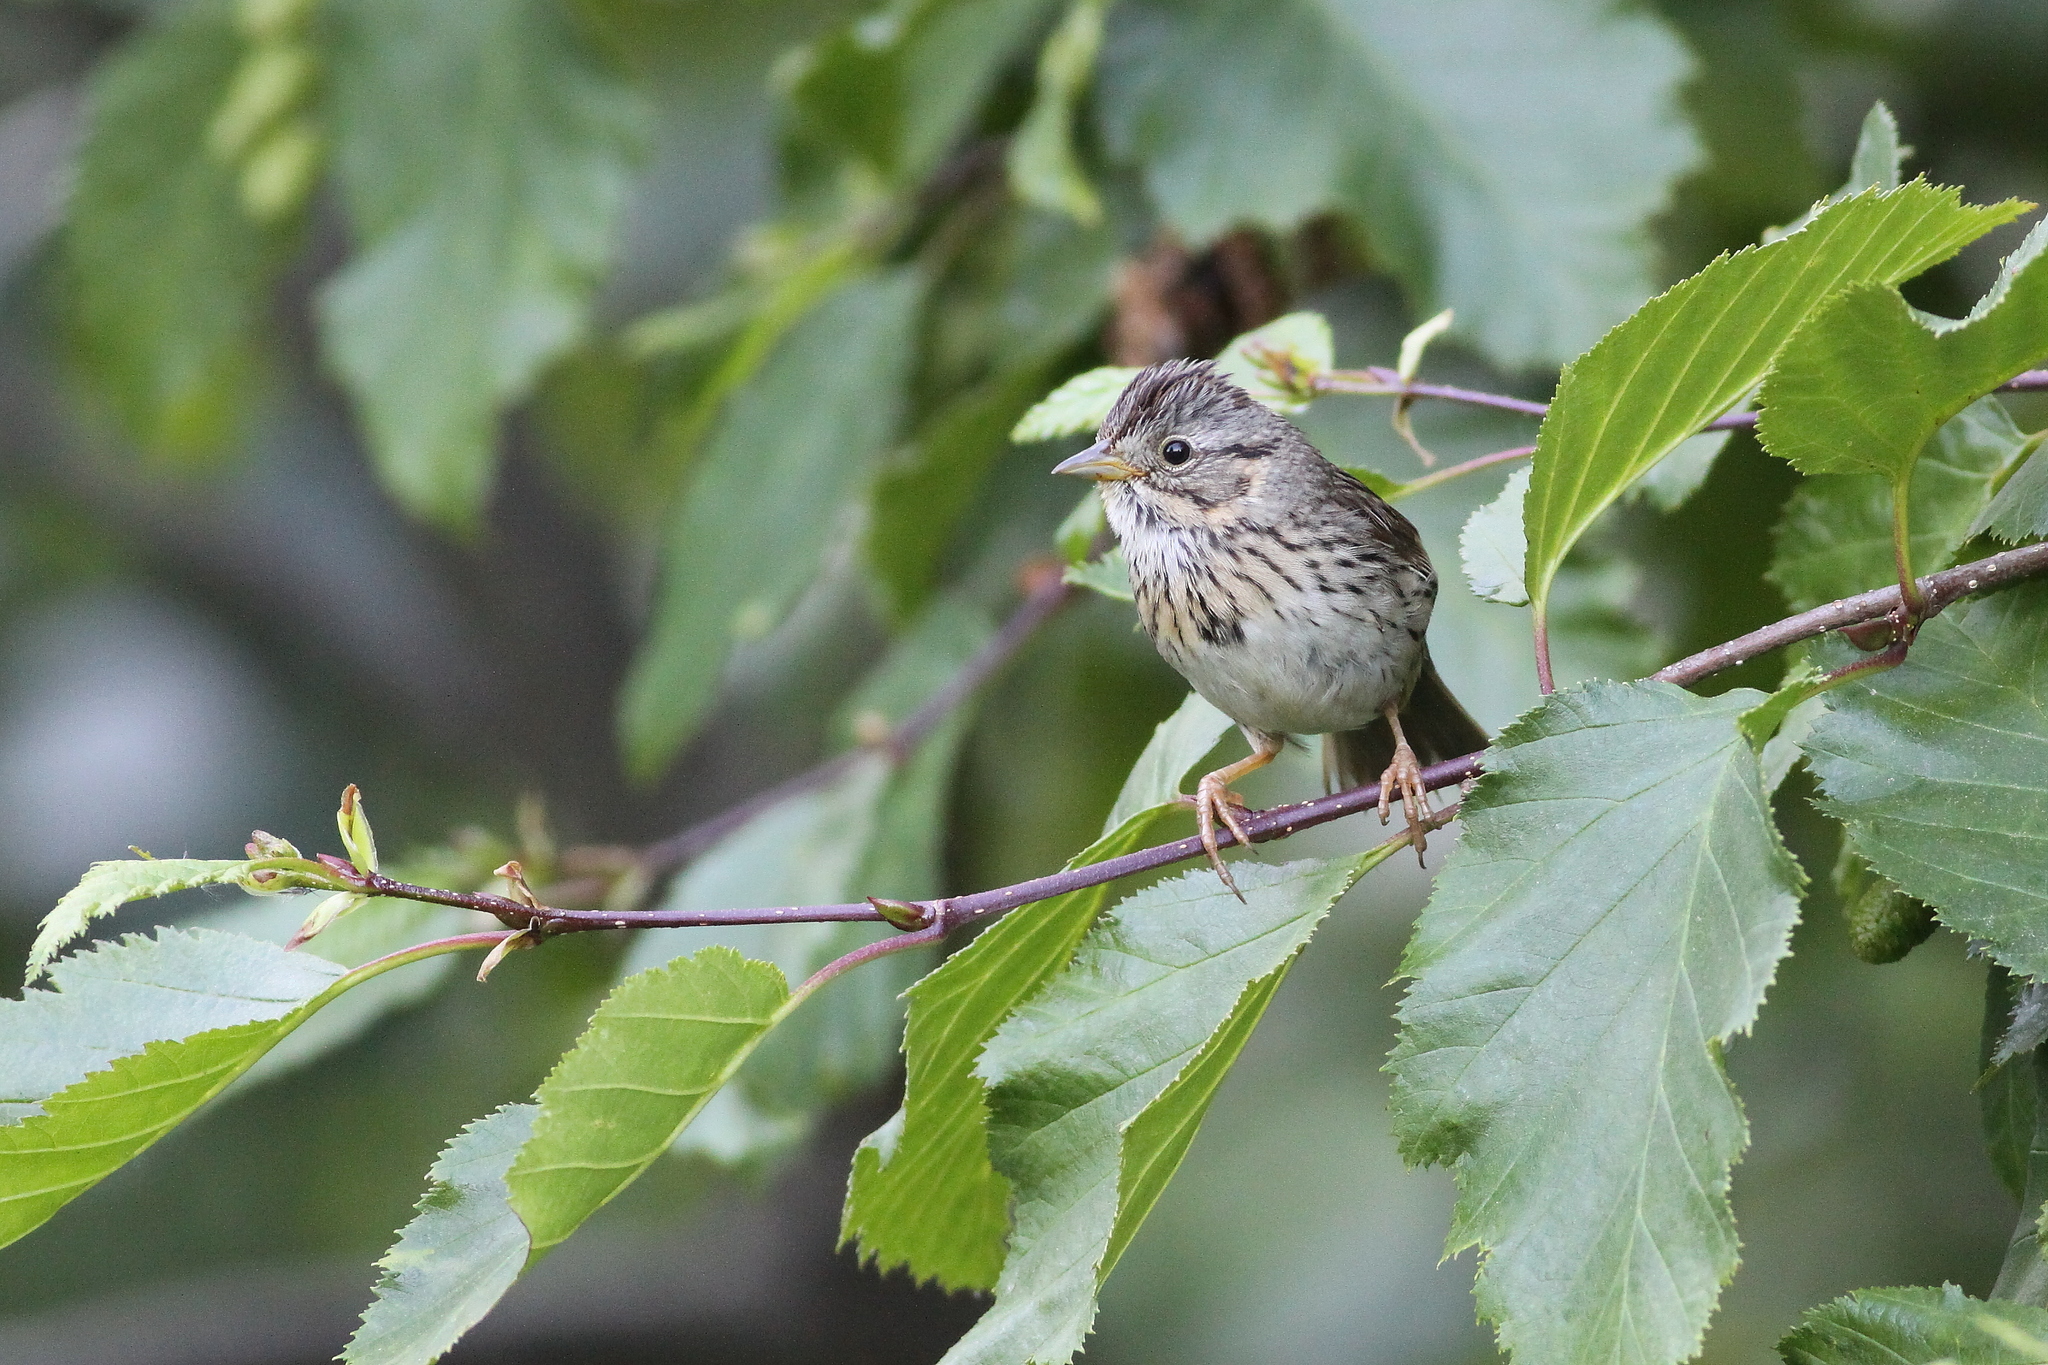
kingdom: Animalia
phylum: Chordata
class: Aves
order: Passeriformes
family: Passerellidae
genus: Melospiza
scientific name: Melospiza lincolnii
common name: Lincoln's sparrow
